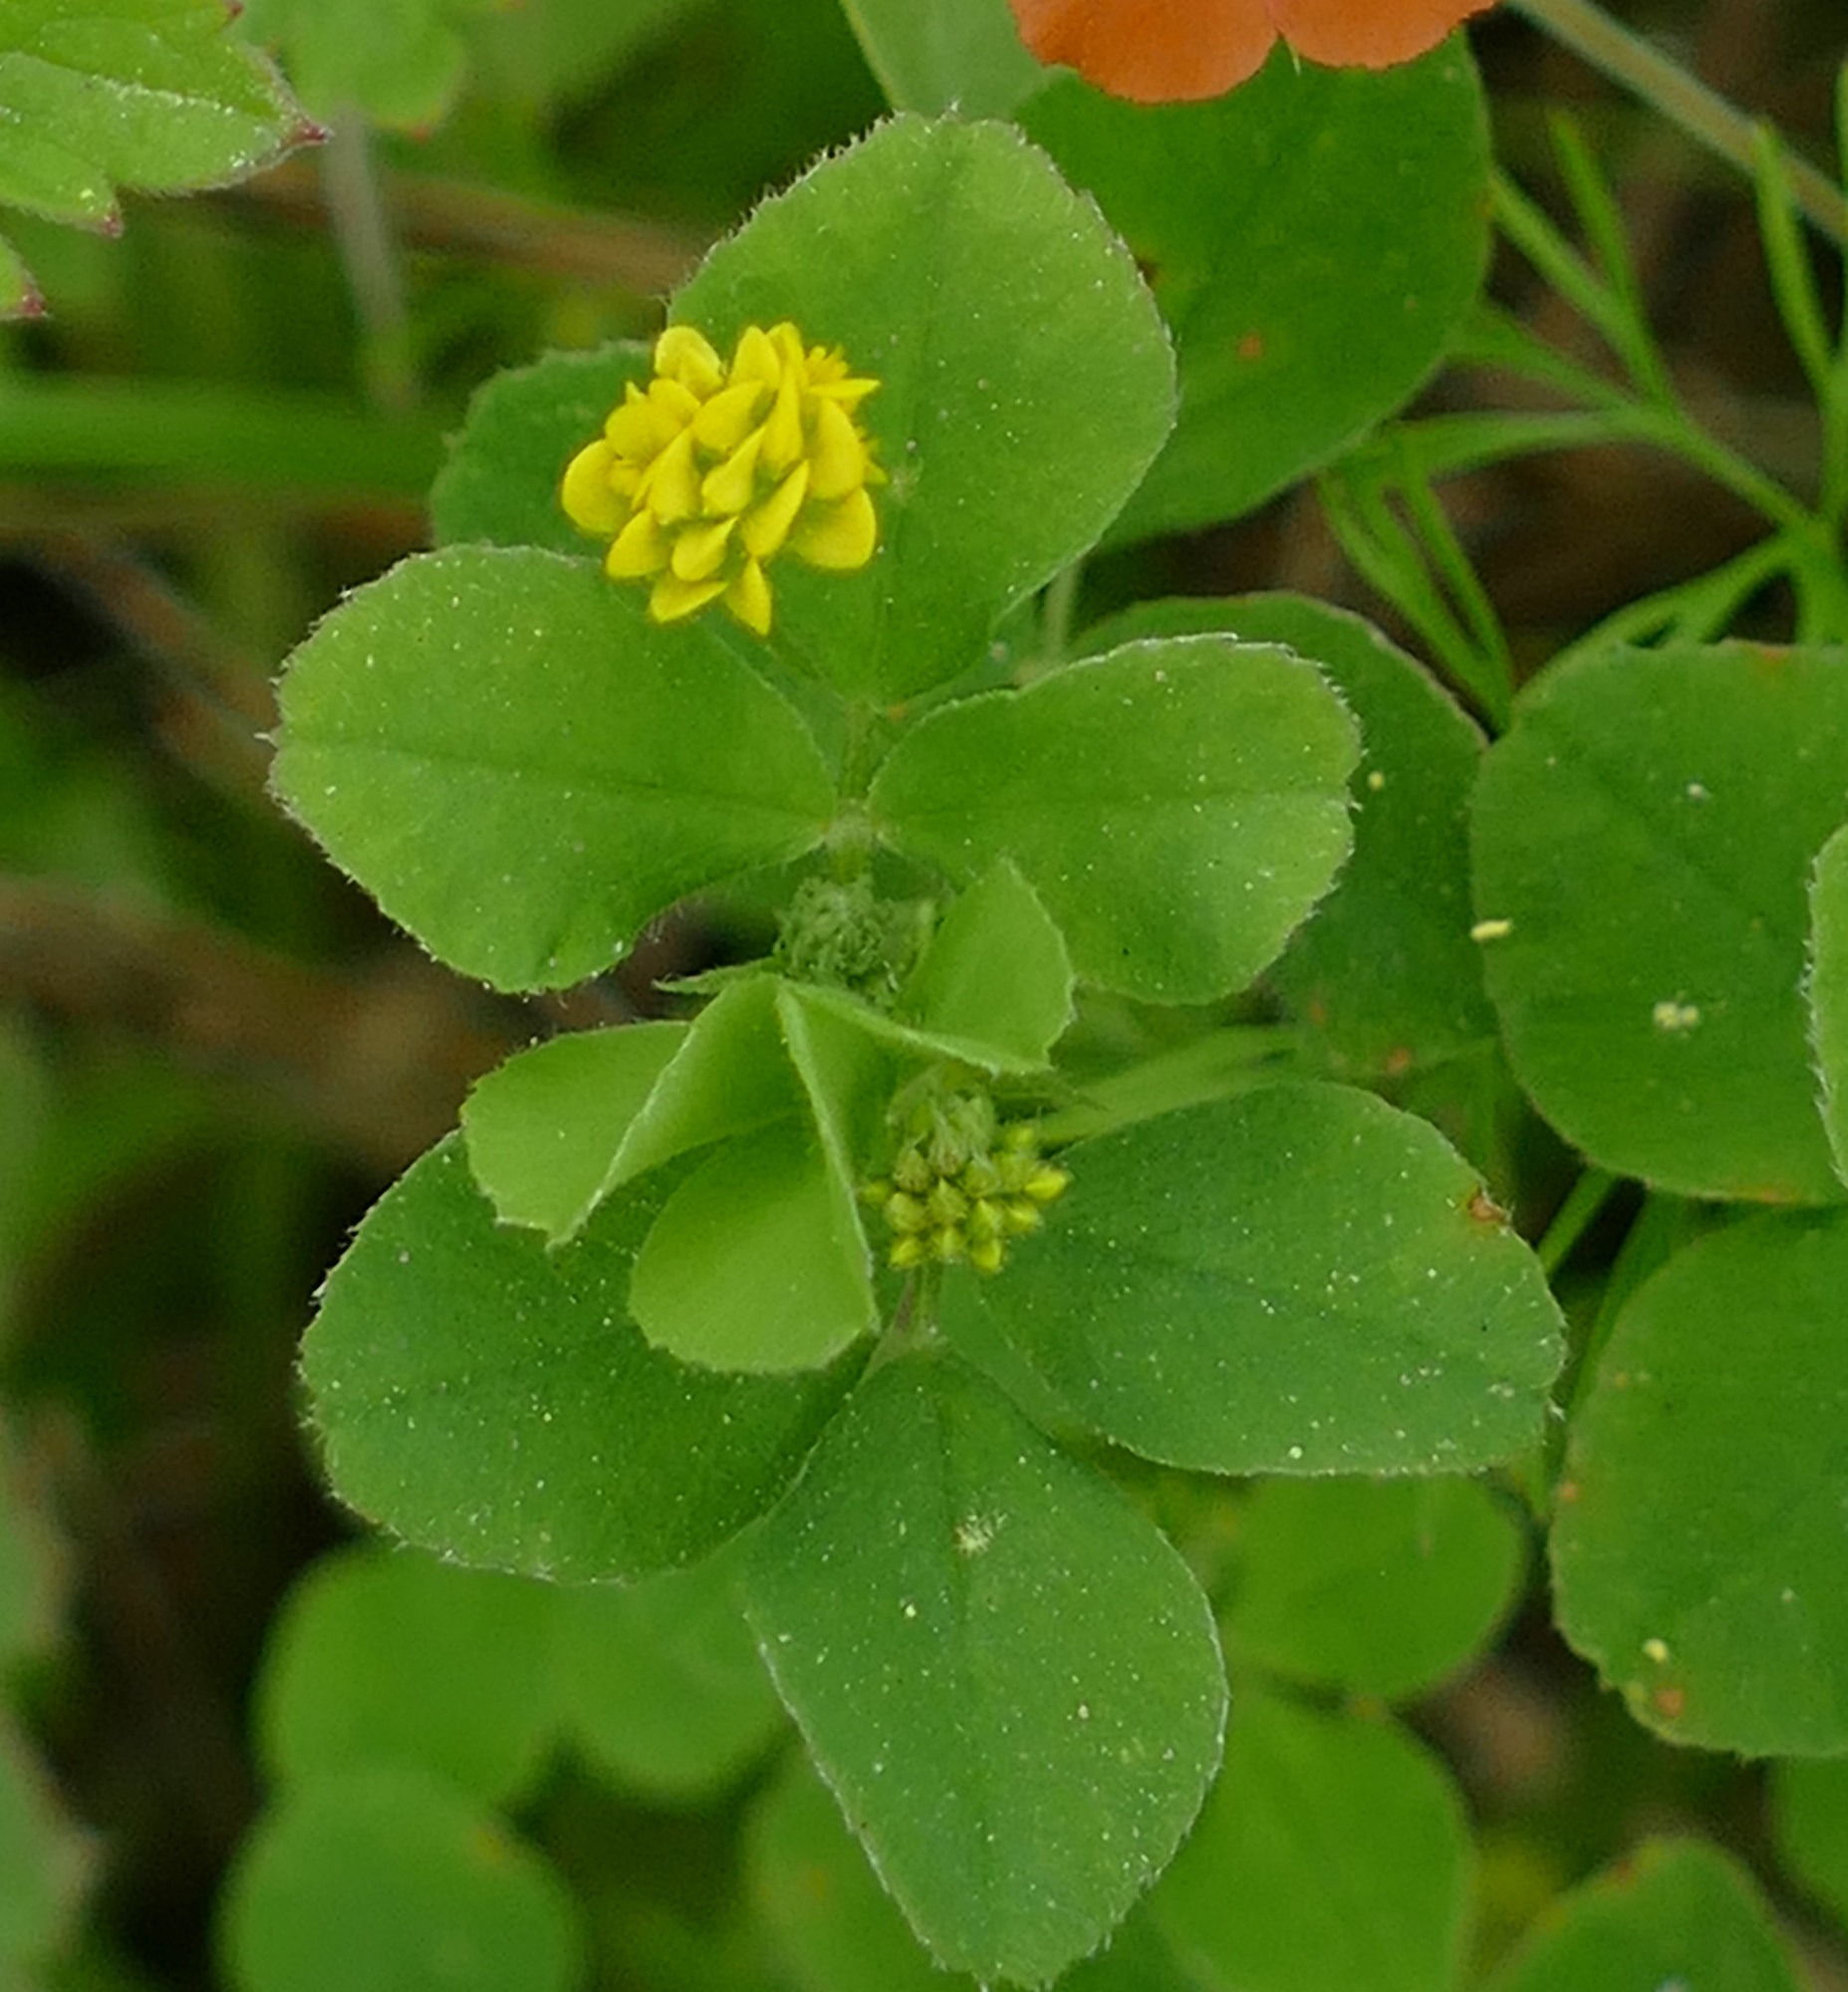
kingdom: Plantae
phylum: Tracheophyta
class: Magnoliopsida
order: Fabales
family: Fabaceae
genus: Medicago
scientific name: Medicago lupulina
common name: Black medick
